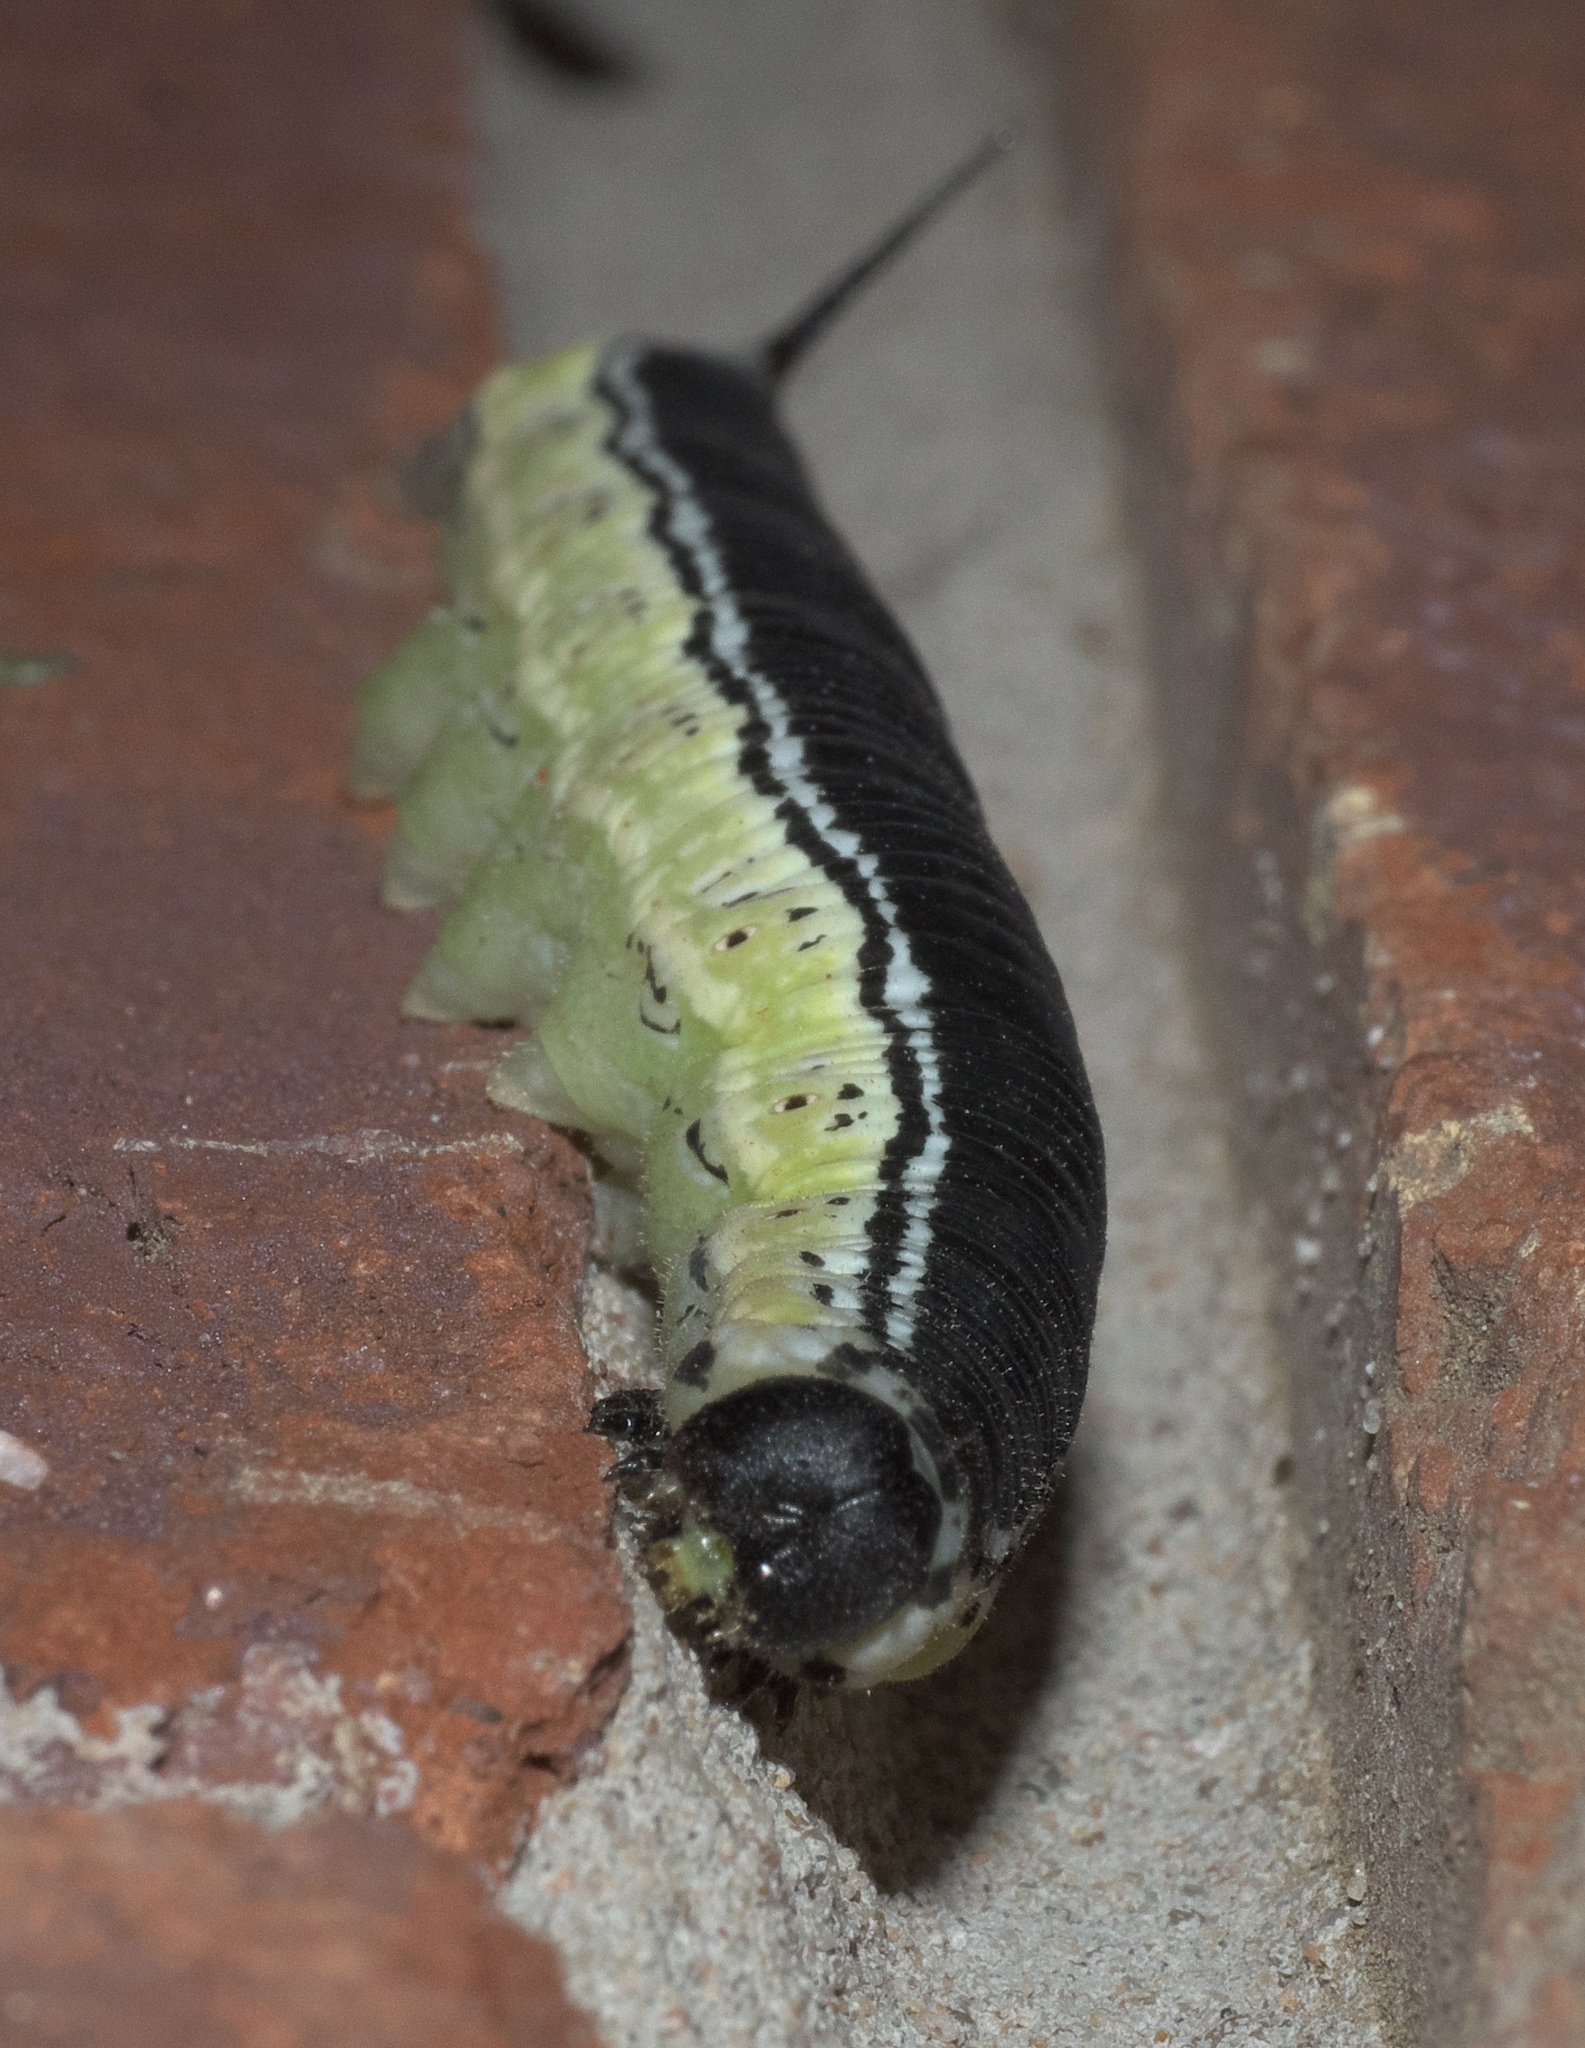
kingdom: Animalia
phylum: Arthropoda
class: Insecta
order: Lepidoptera
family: Sphingidae
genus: Ceratomia
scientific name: Ceratomia catalpae
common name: Catalpa hornworm
